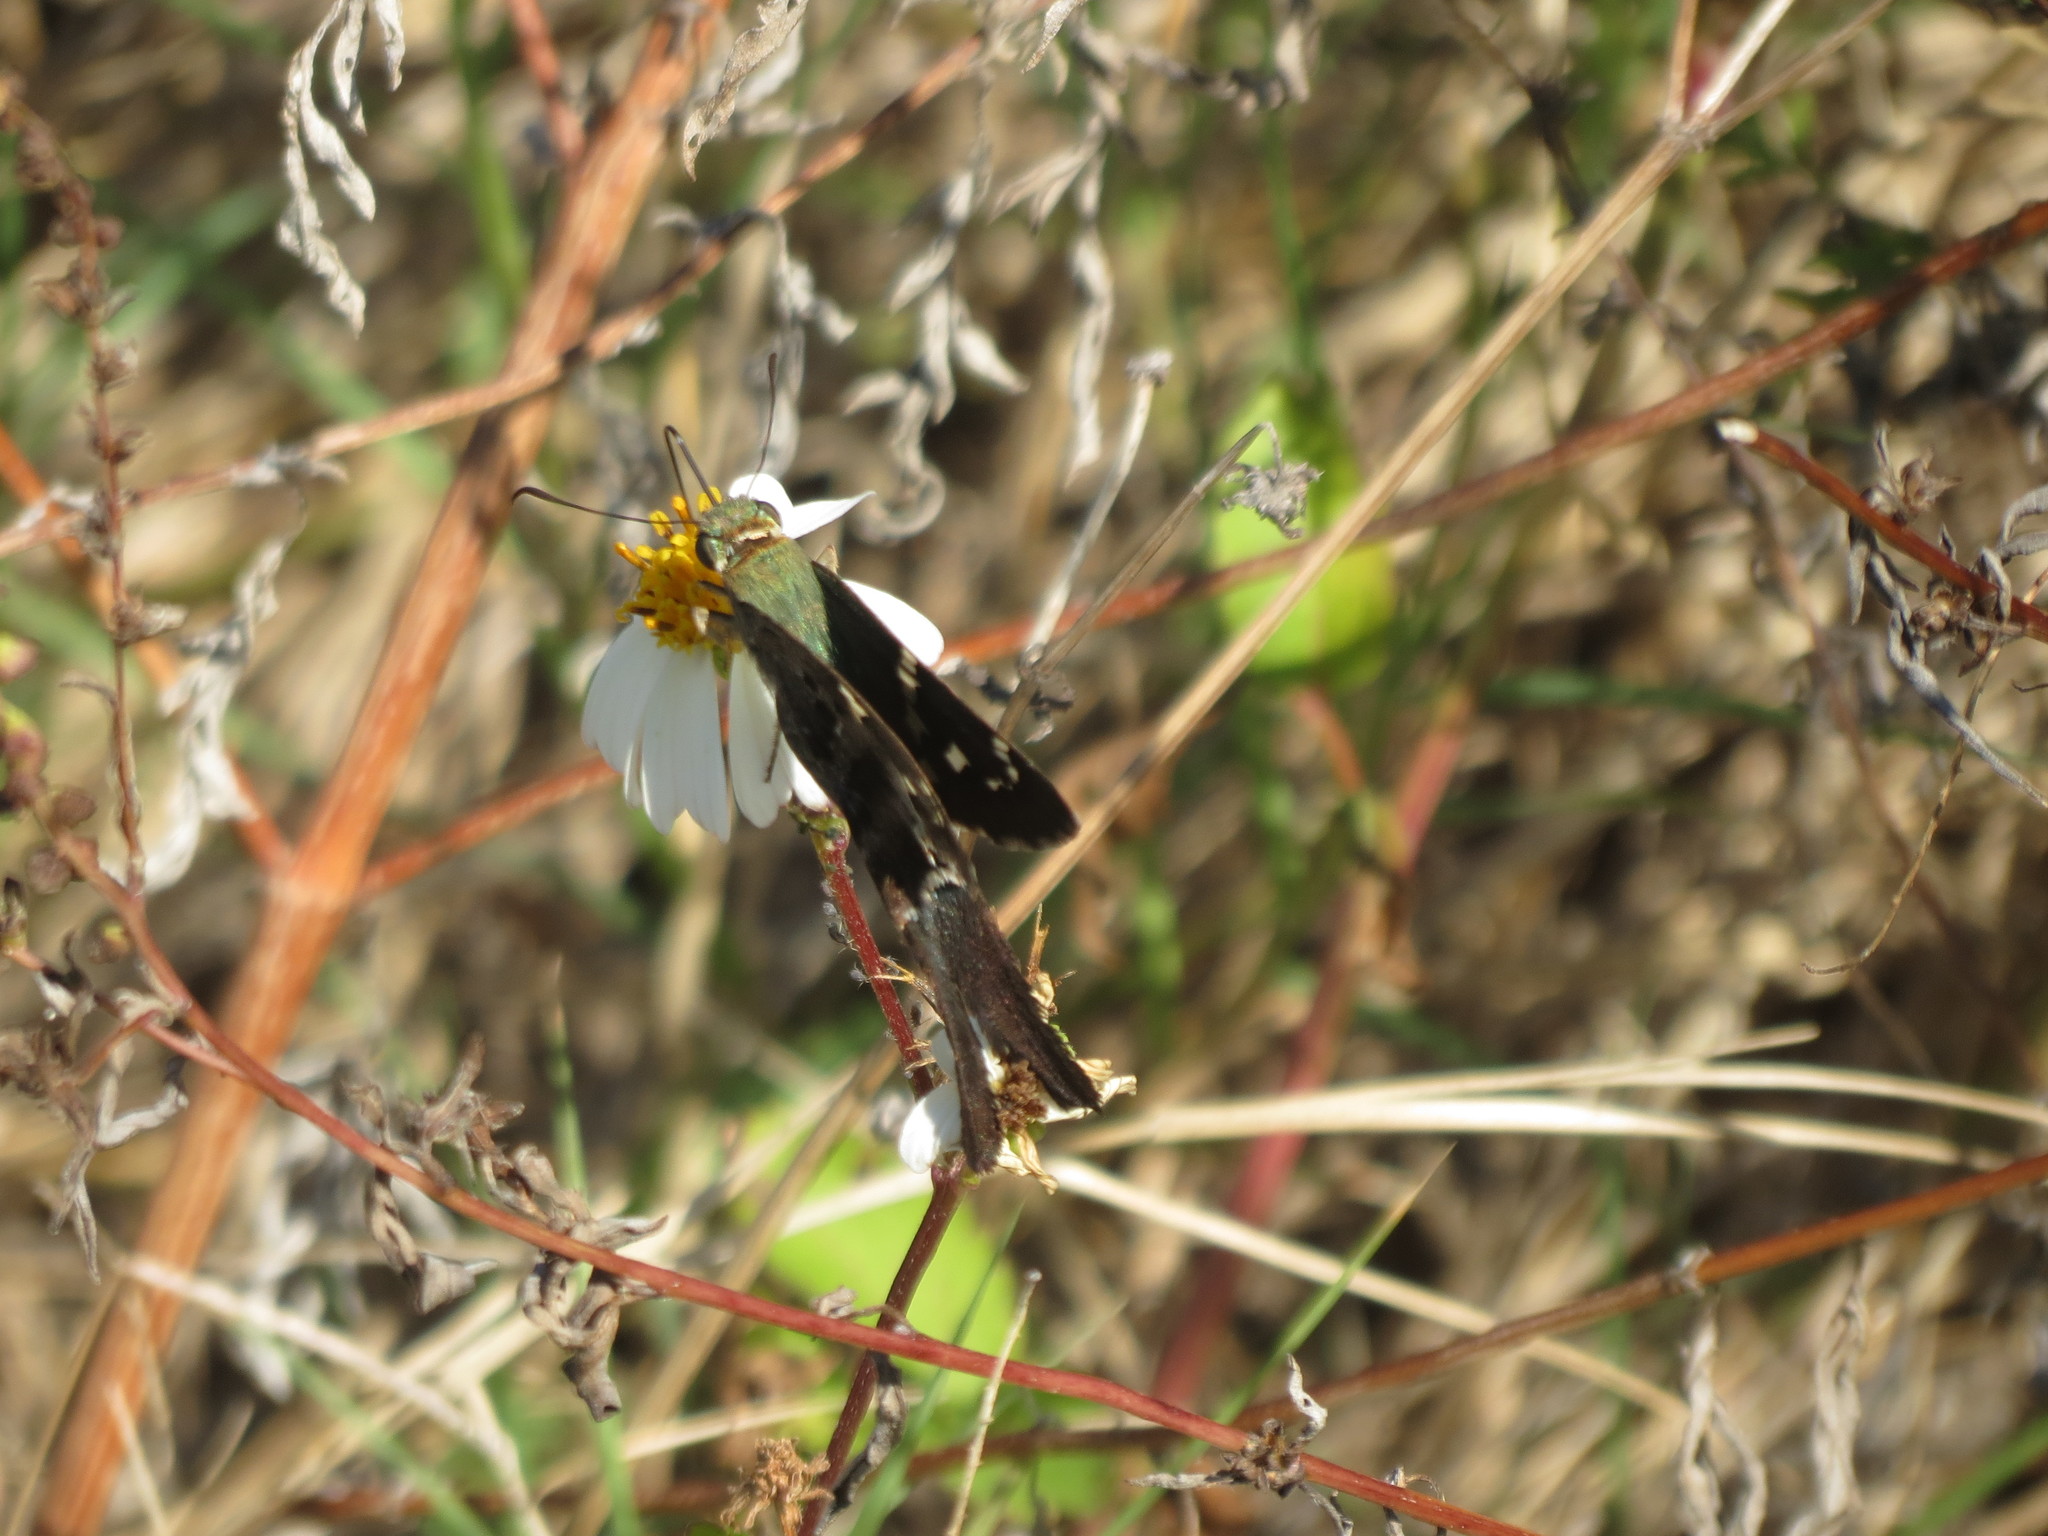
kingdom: Animalia
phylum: Arthropoda
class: Insecta
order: Lepidoptera
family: Hesperiidae
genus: Urbanus
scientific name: Urbanus proteus
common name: Long-tailed skipper
